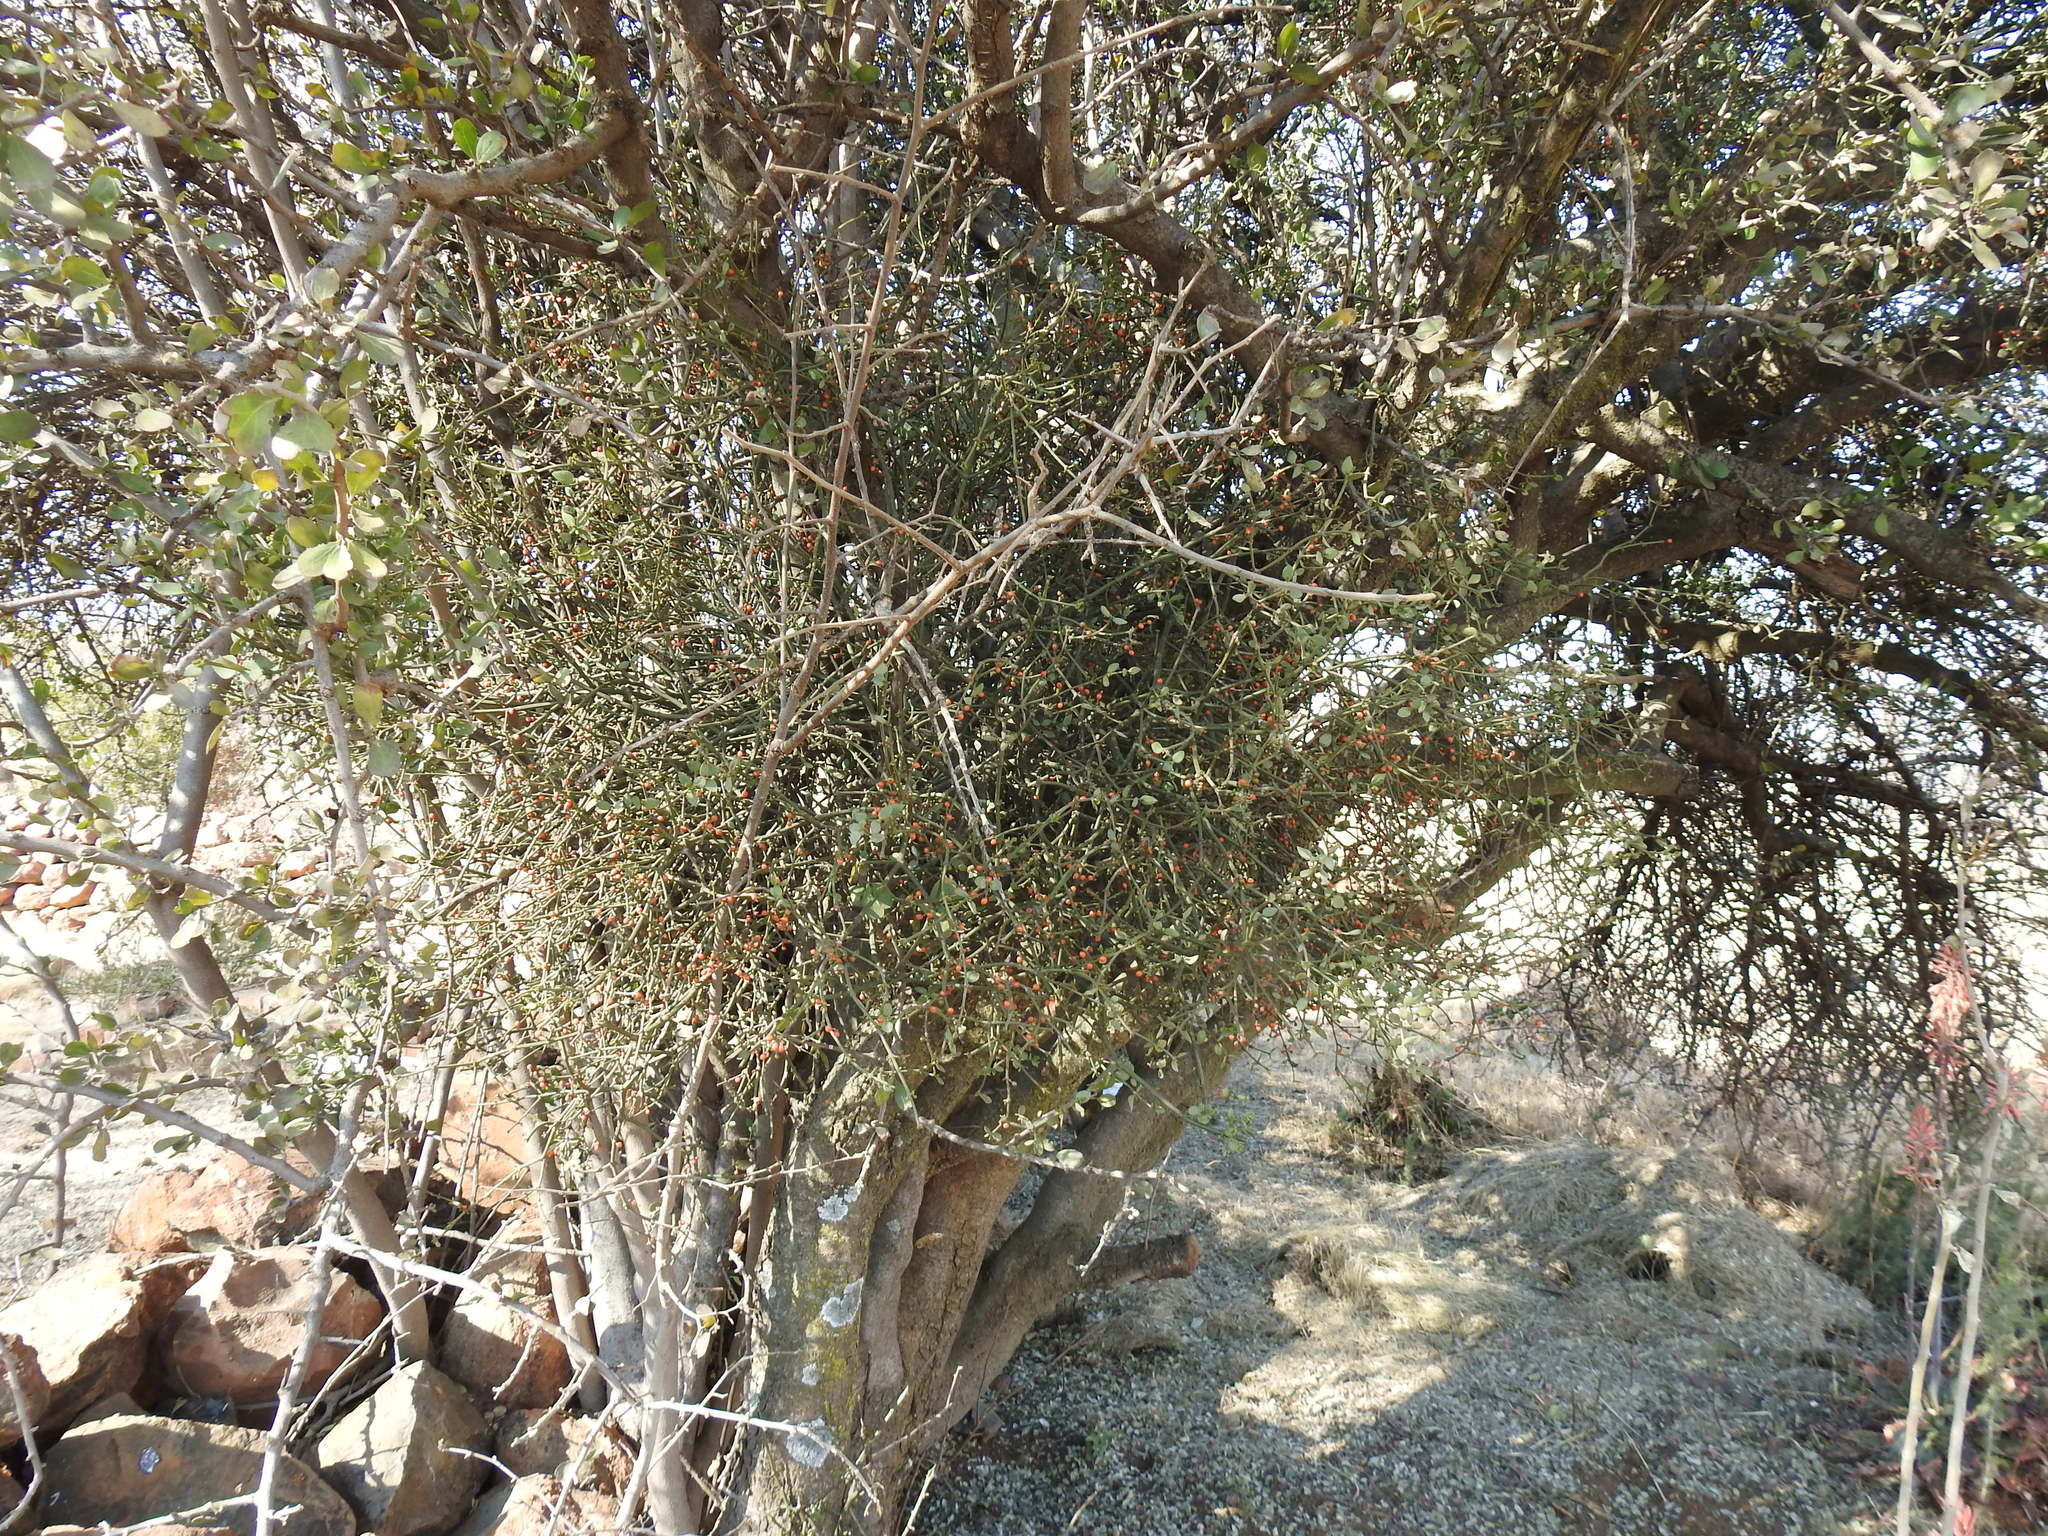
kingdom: Plantae
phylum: Tracheophyta
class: Magnoliopsida
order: Santalales
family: Viscaceae
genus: Viscum
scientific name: Viscum rotundifolium
